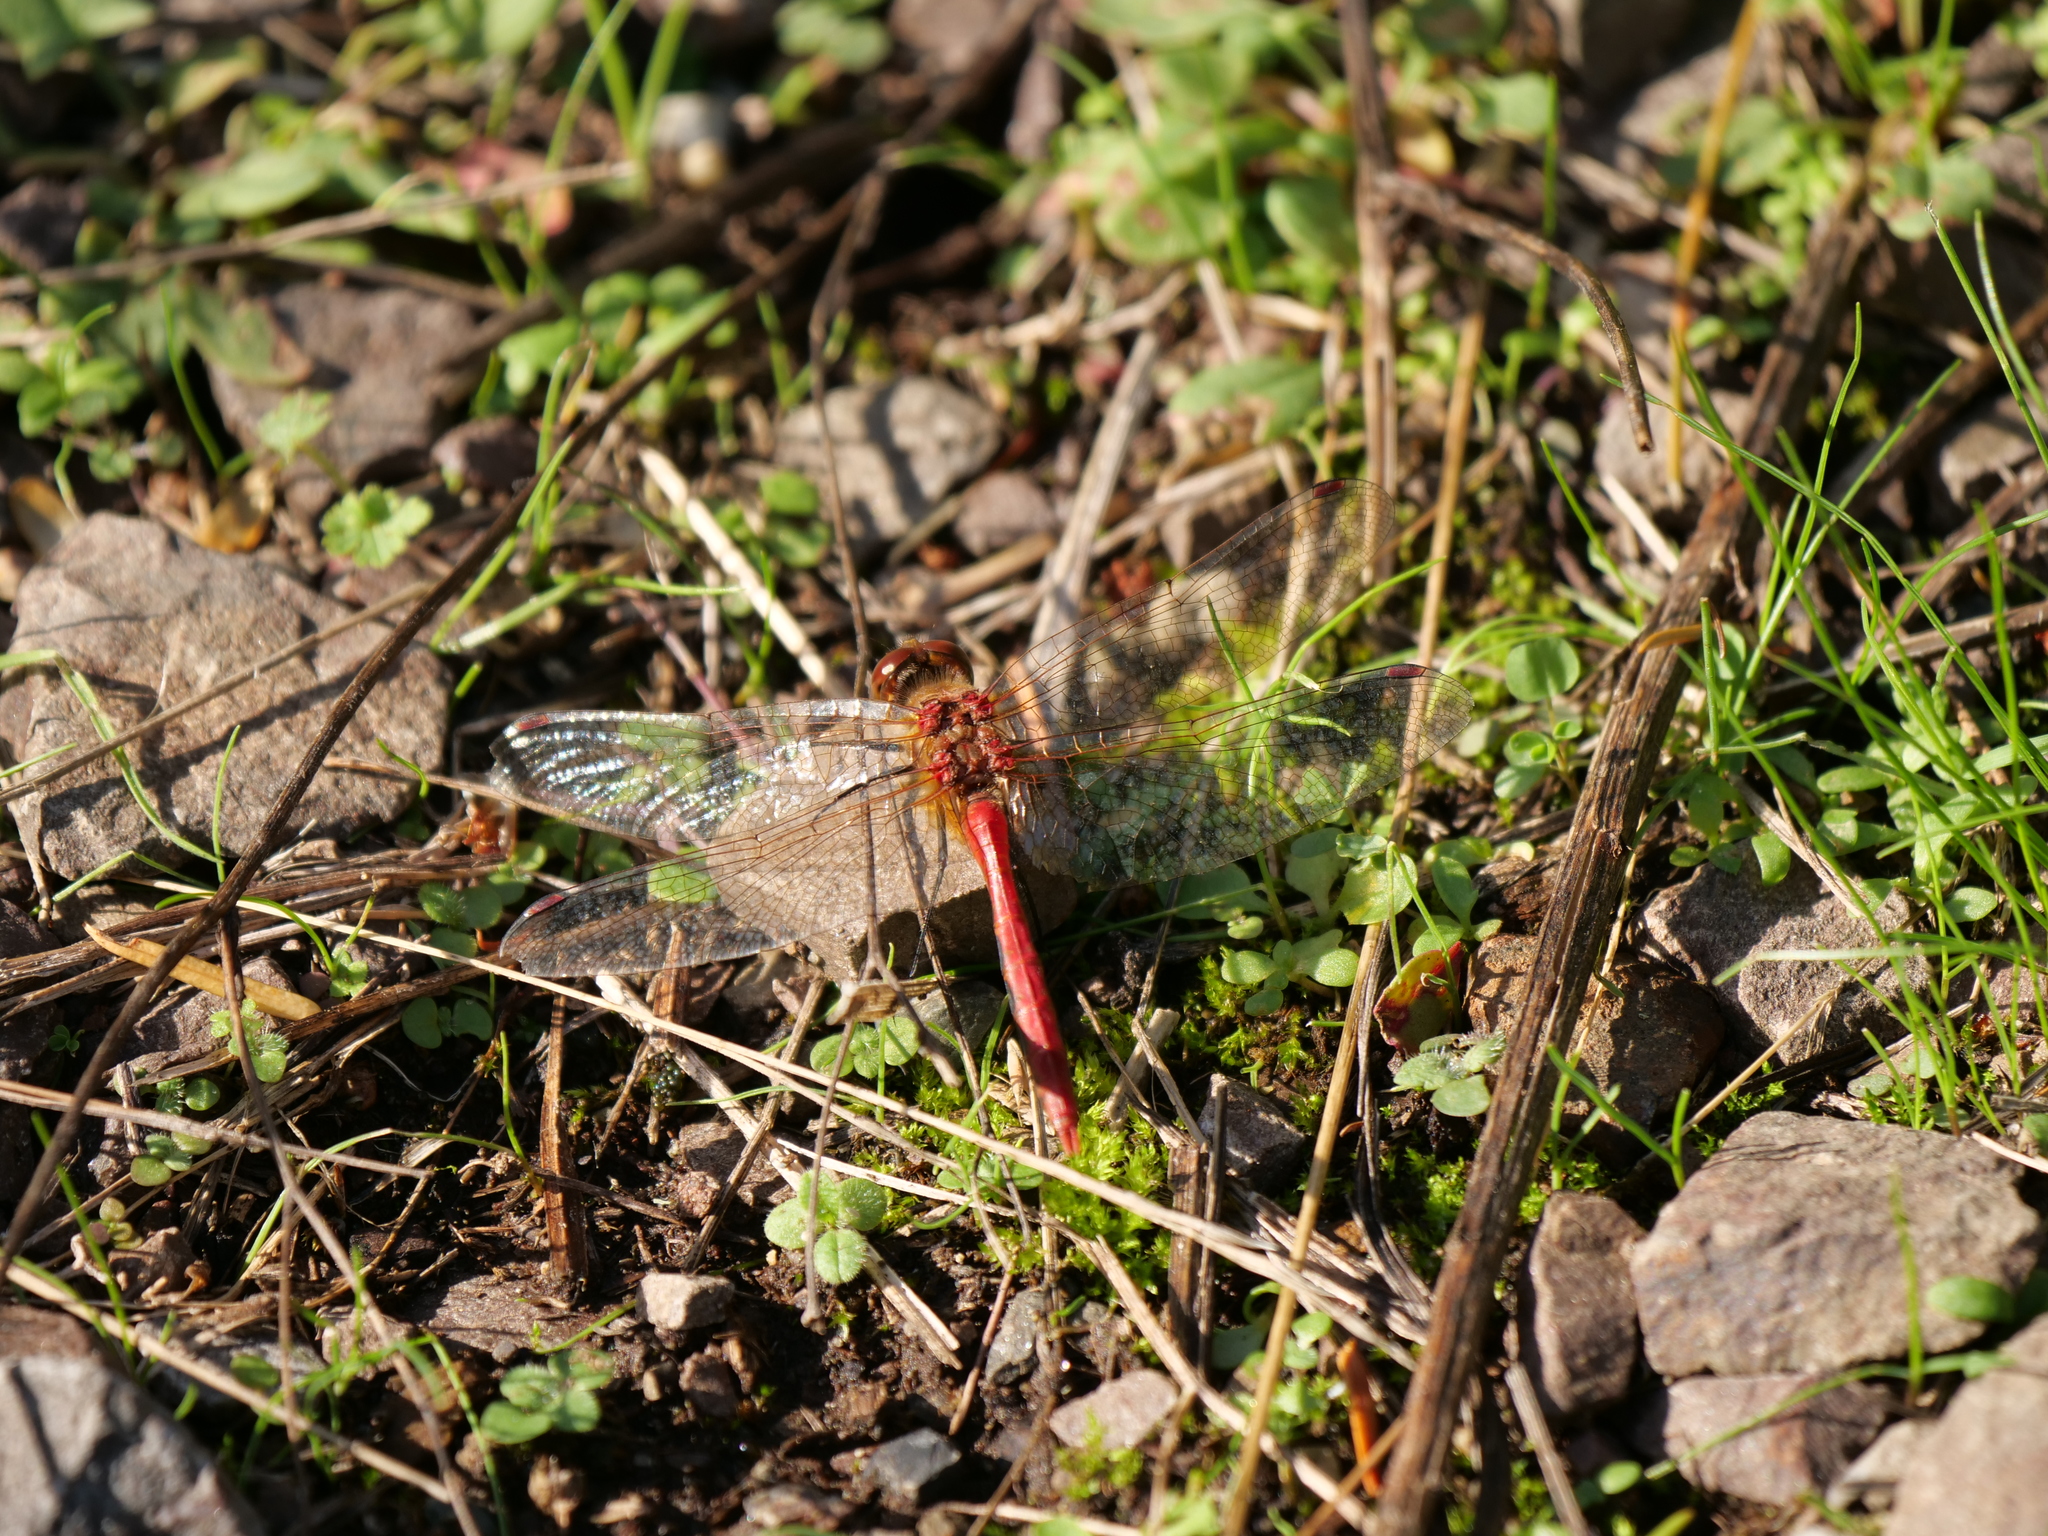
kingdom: Animalia
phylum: Arthropoda
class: Insecta
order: Odonata
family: Libellulidae
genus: Sympetrum
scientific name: Sympetrum pallipes
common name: Striped meadowhawk
